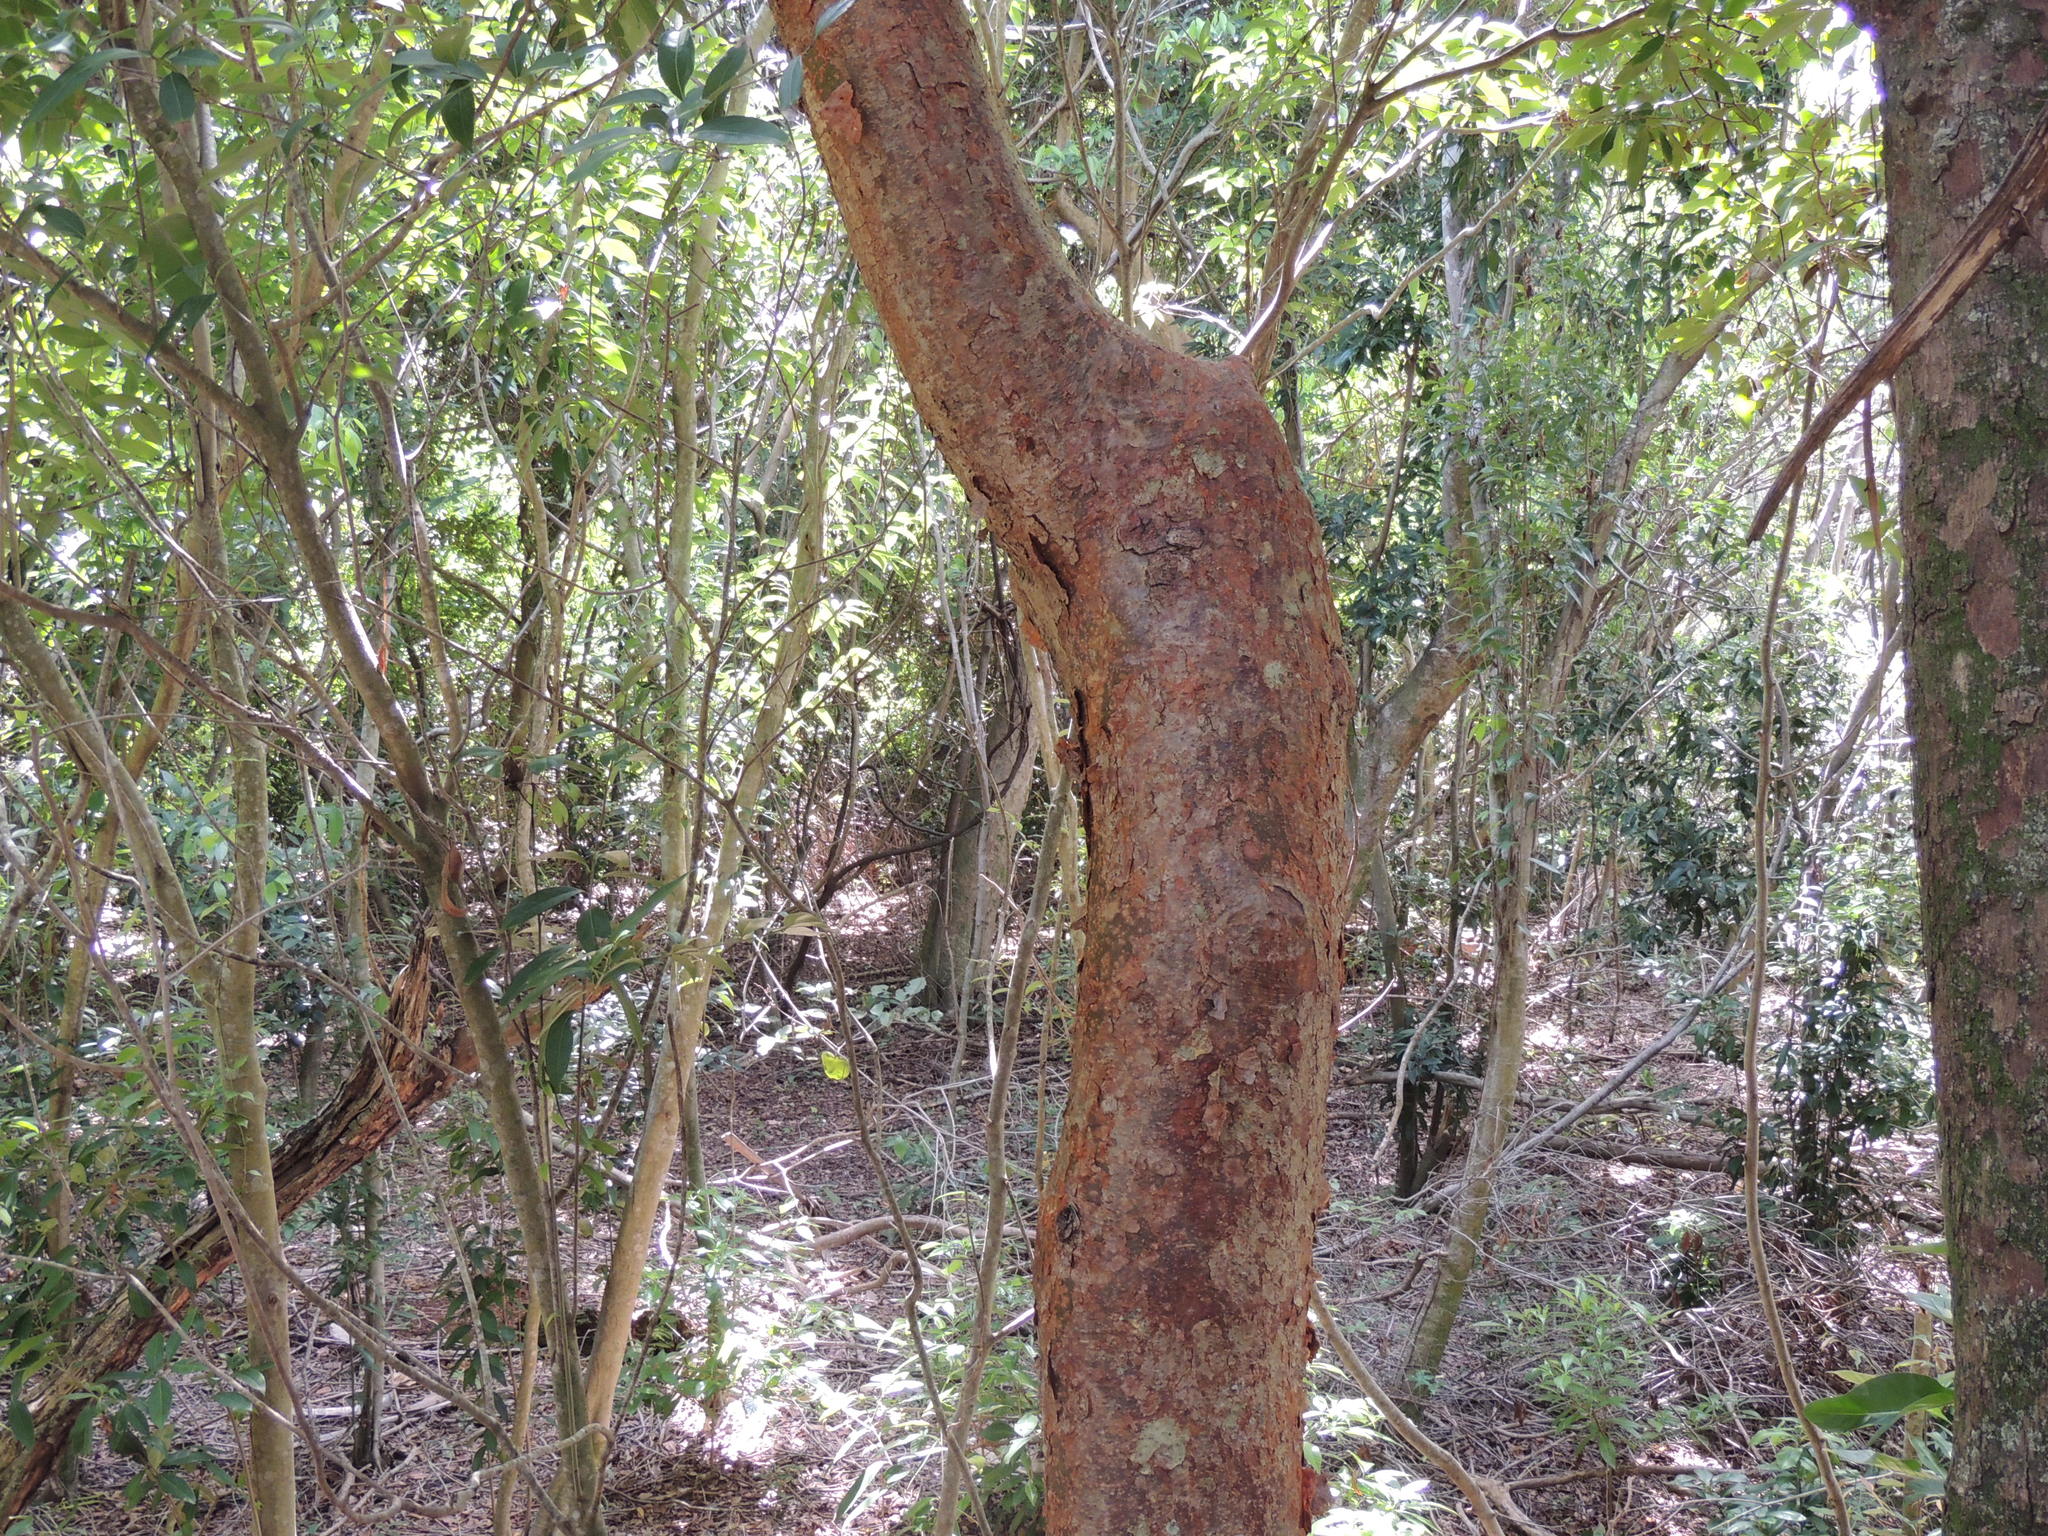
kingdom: Plantae
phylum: Tracheophyta
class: Magnoliopsida
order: Sapindales
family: Burseraceae
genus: Bursera
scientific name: Bursera simaruba
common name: Turpentine tree
